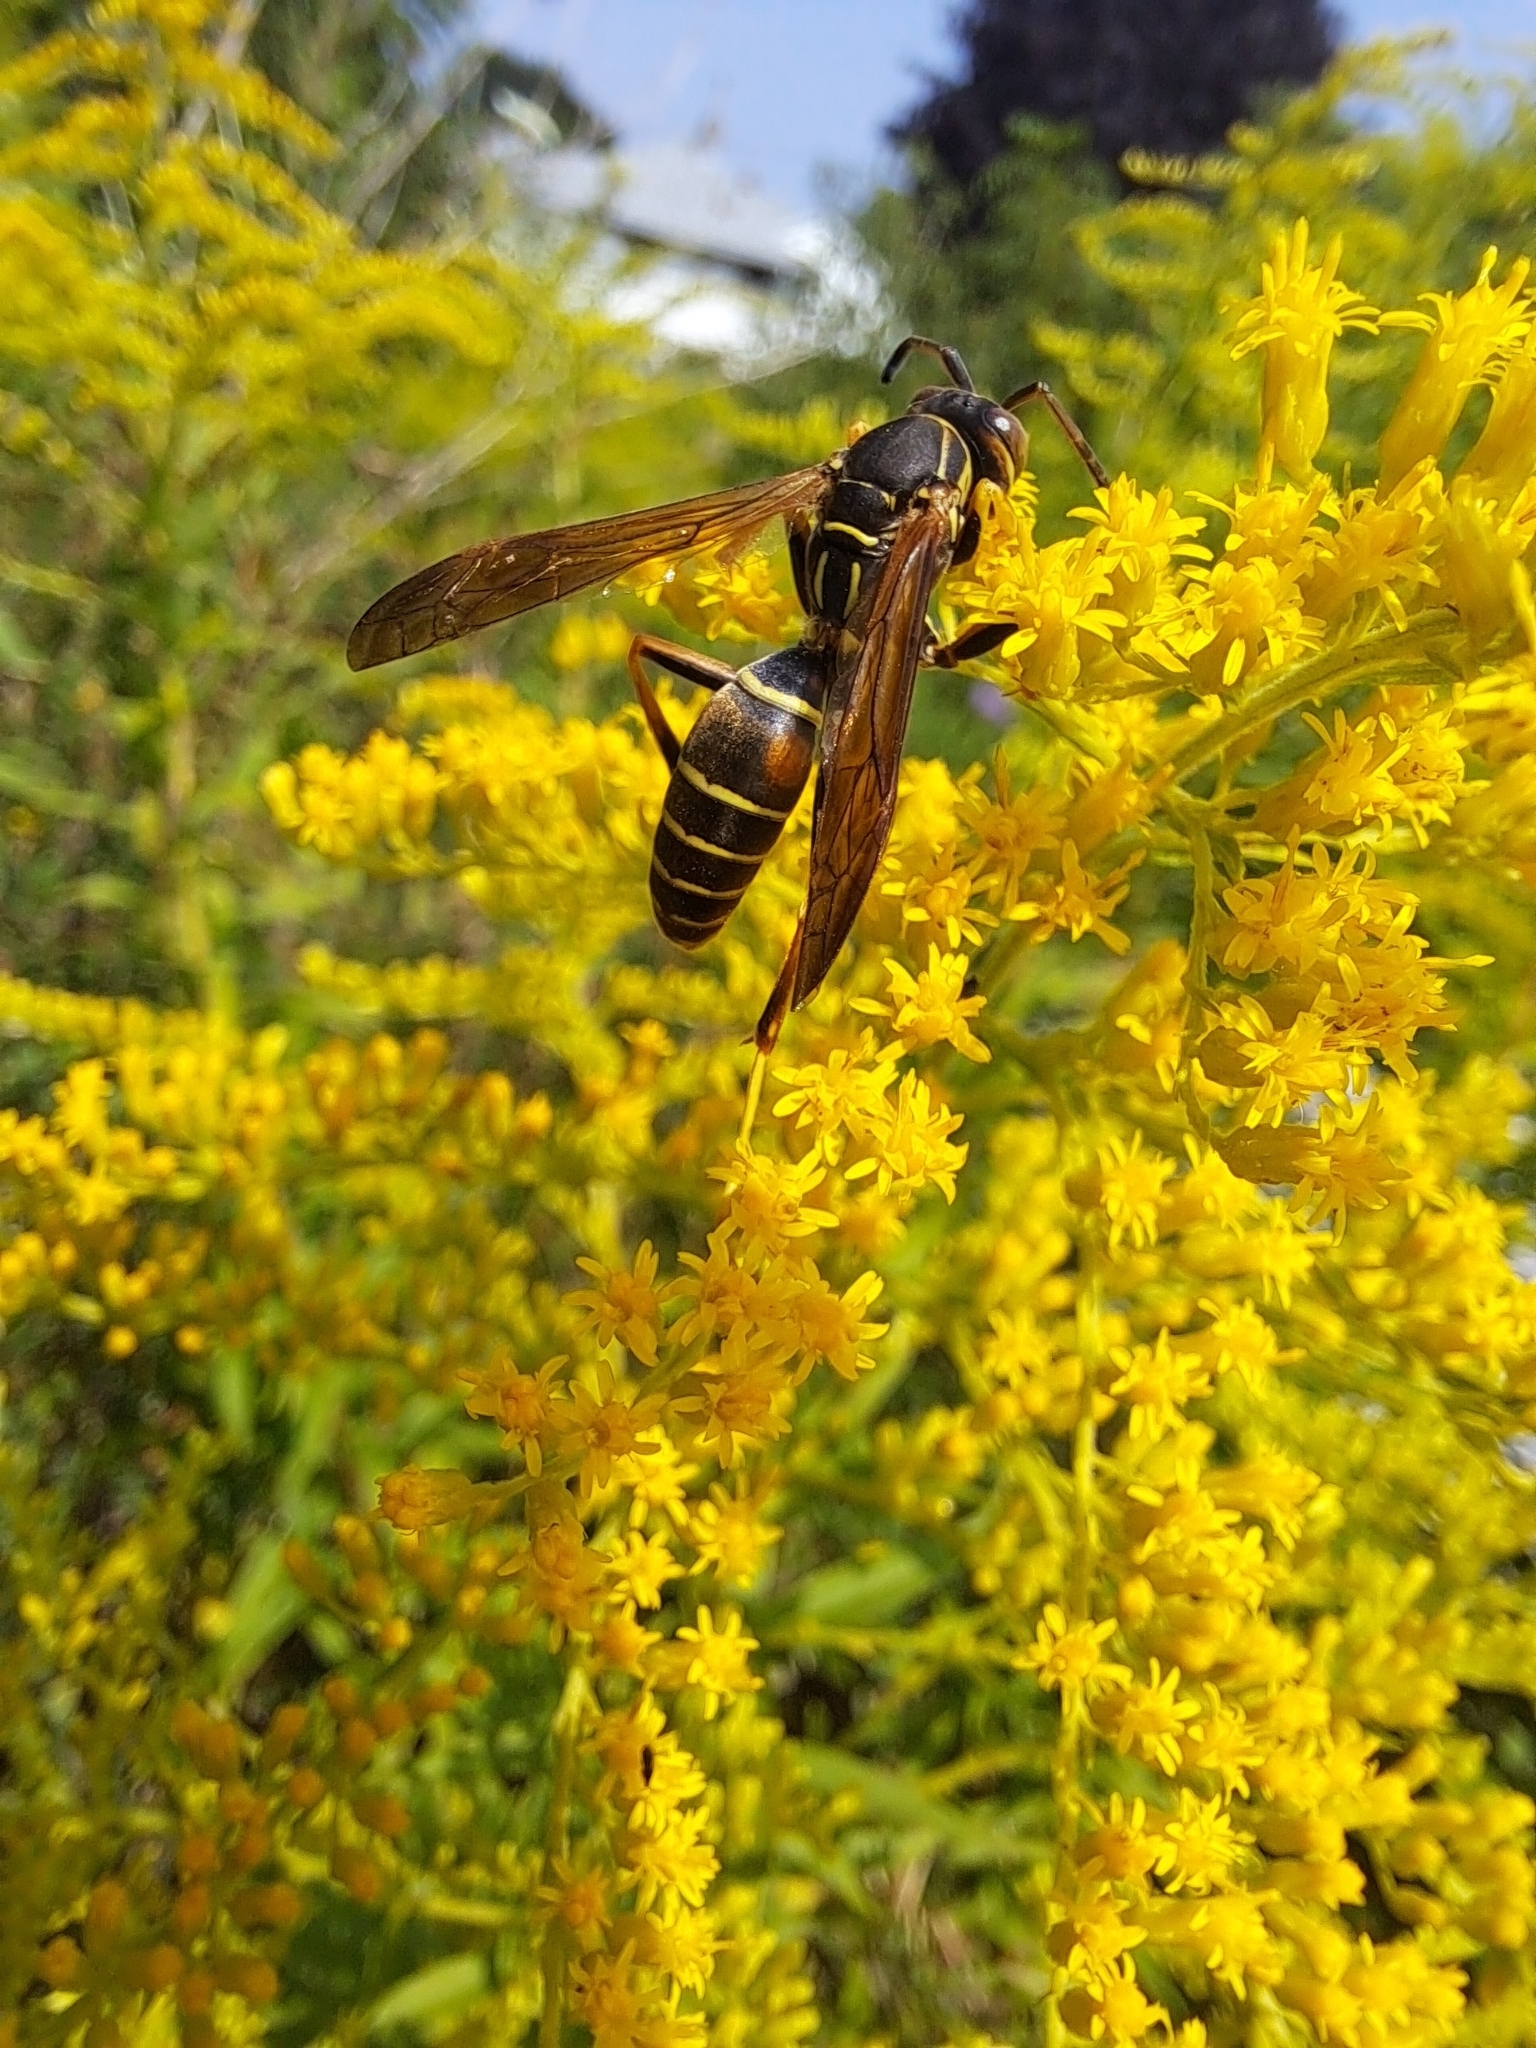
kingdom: Animalia
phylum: Arthropoda
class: Insecta
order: Hymenoptera
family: Eumenidae
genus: Polistes
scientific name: Polistes fuscatus
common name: Dark paper wasp
